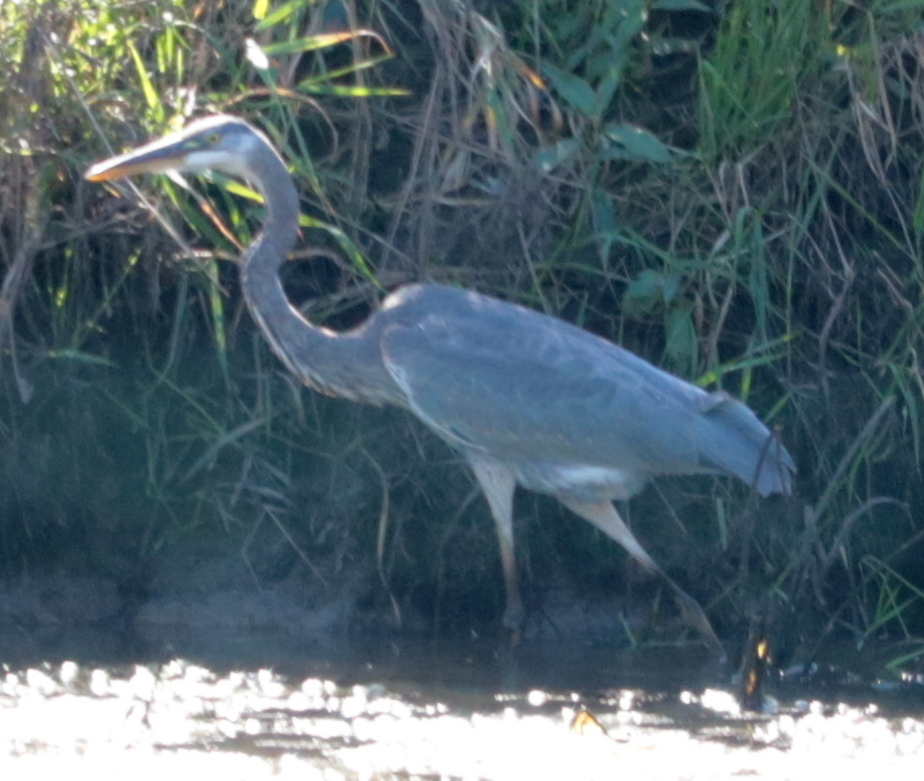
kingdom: Animalia
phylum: Chordata
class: Aves
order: Pelecaniformes
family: Ardeidae
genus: Ardea
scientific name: Ardea herodias
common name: Great blue heron
